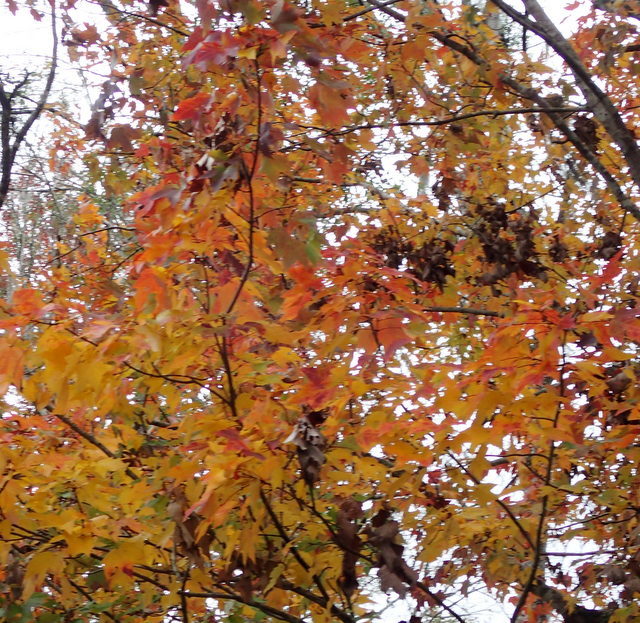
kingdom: Plantae
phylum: Tracheophyta
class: Magnoliopsida
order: Saxifragales
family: Altingiaceae
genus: Liquidambar
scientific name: Liquidambar styraciflua
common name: Sweet gum
